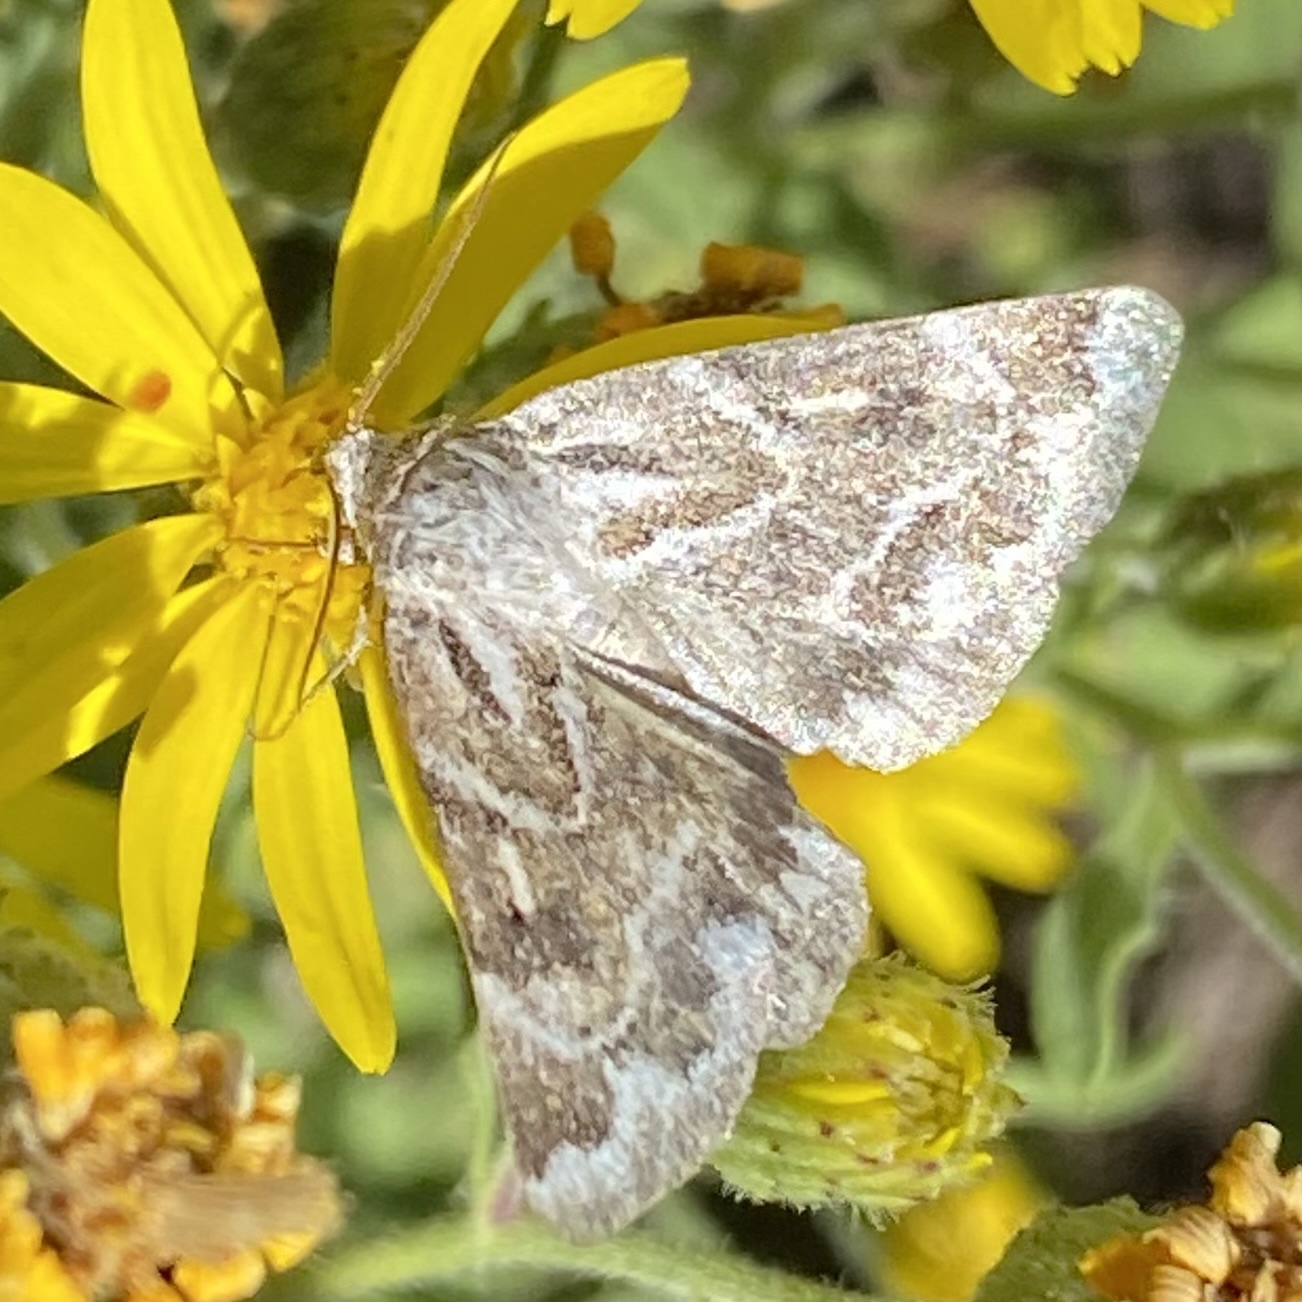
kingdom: Animalia
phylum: Arthropoda
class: Insecta
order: Lepidoptera
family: Noctuidae
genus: Schinia
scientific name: Schinia acutilinea
